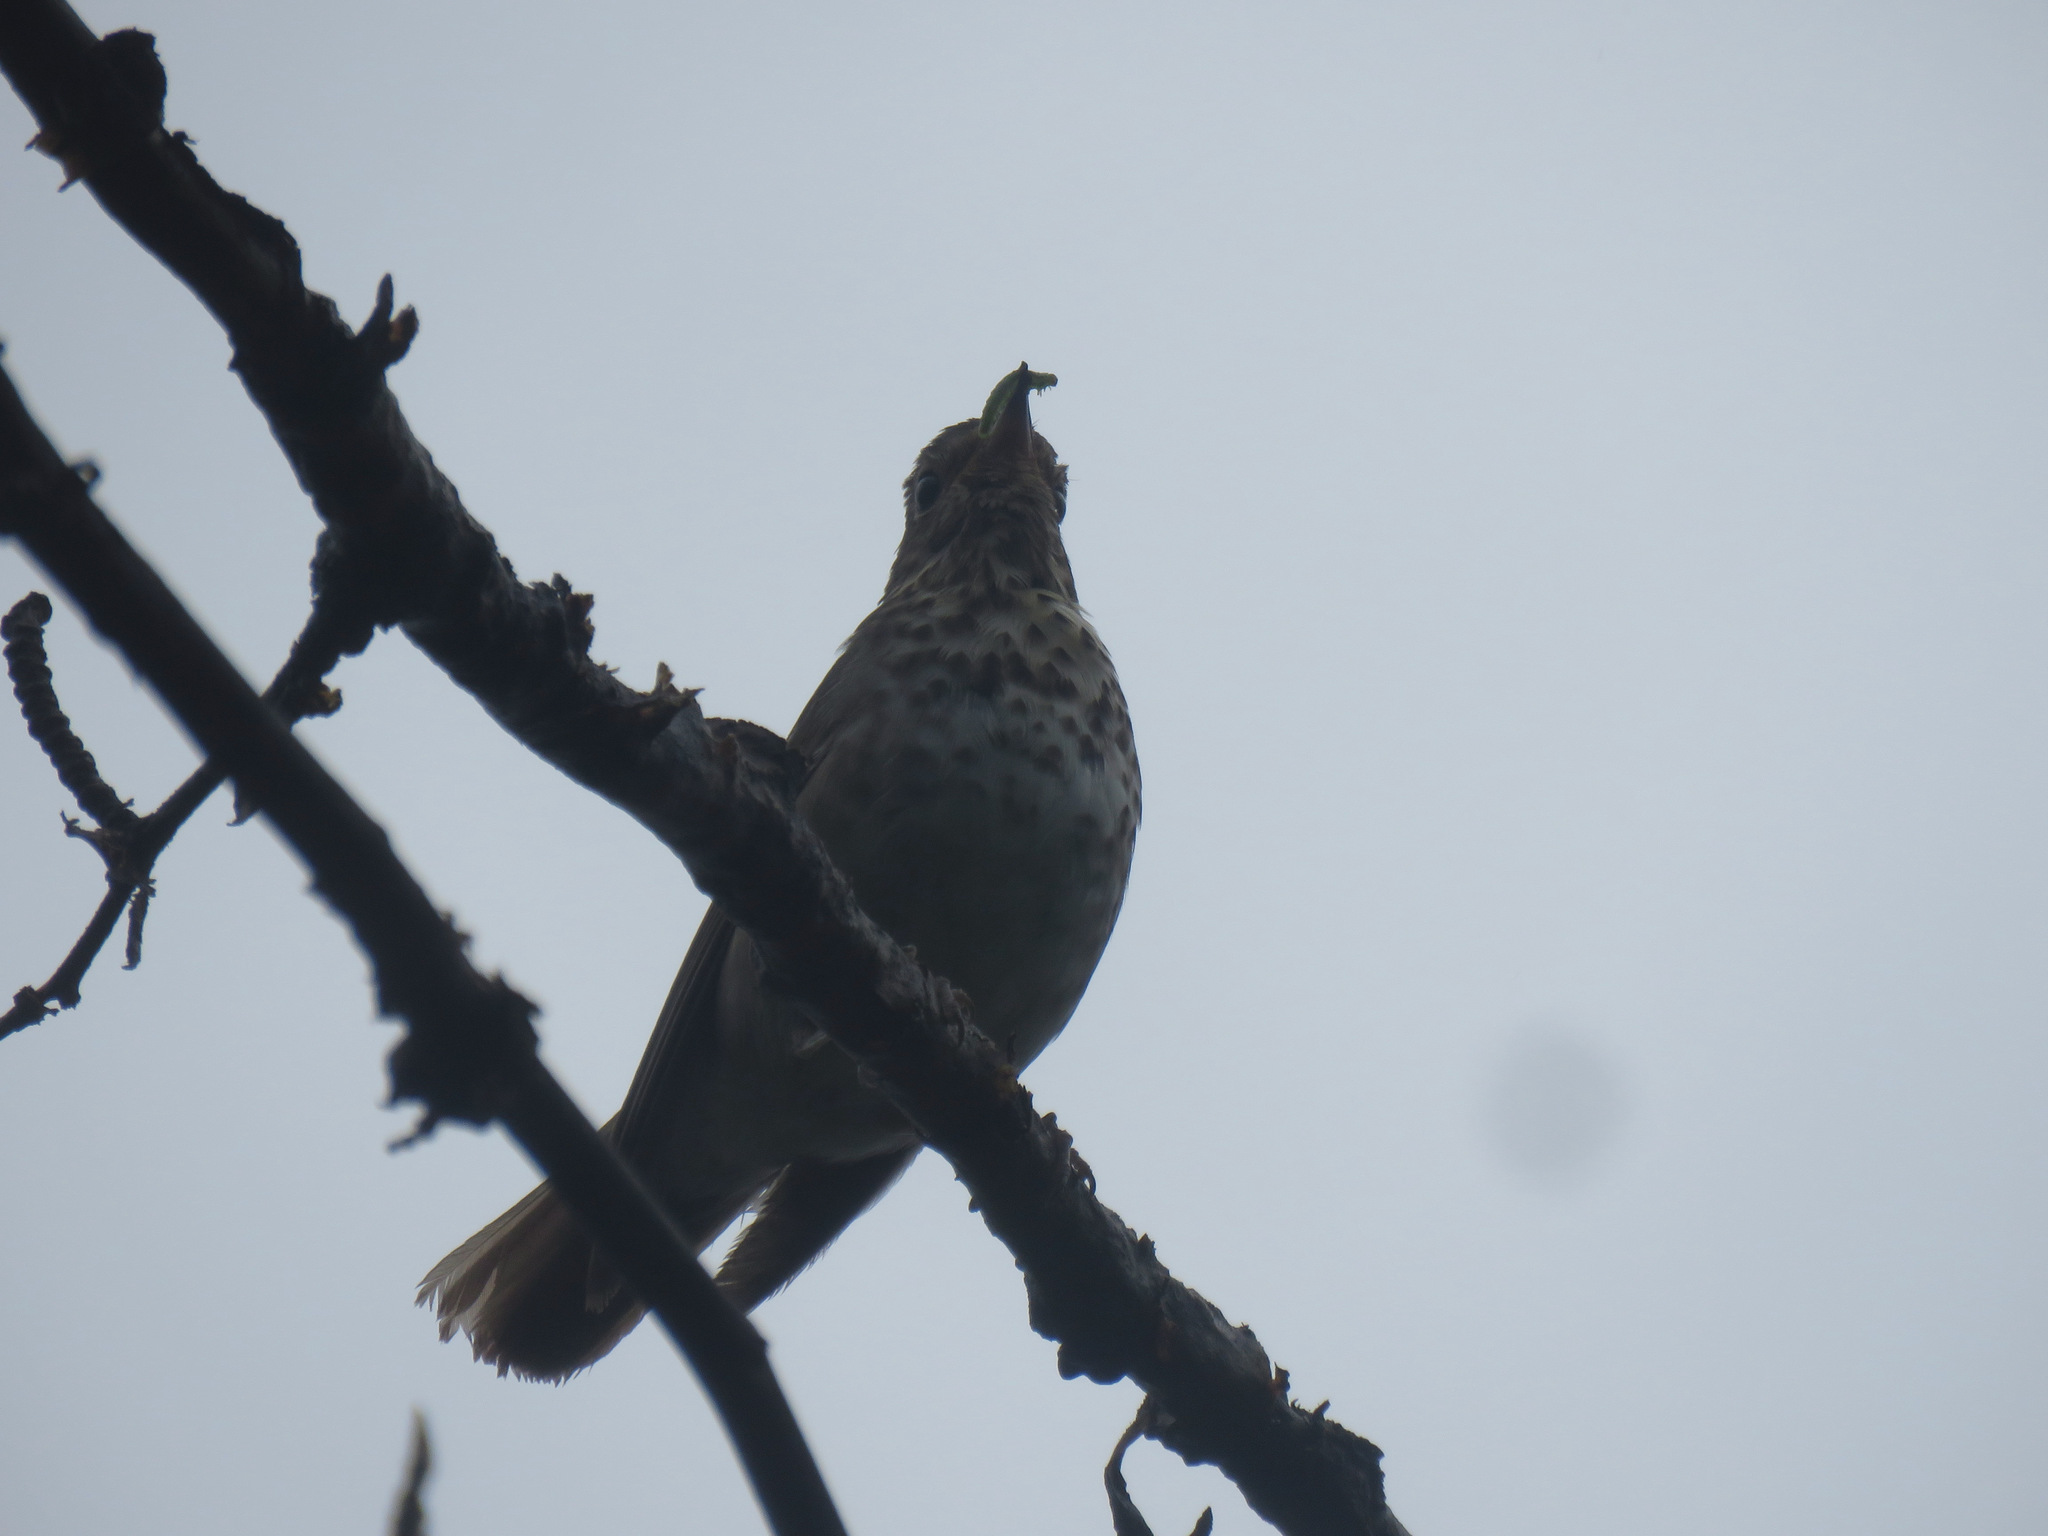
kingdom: Animalia
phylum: Chordata
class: Aves
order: Passeriformes
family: Turdidae
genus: Catharus
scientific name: Catharus ustulatus
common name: Swainson's thrush
